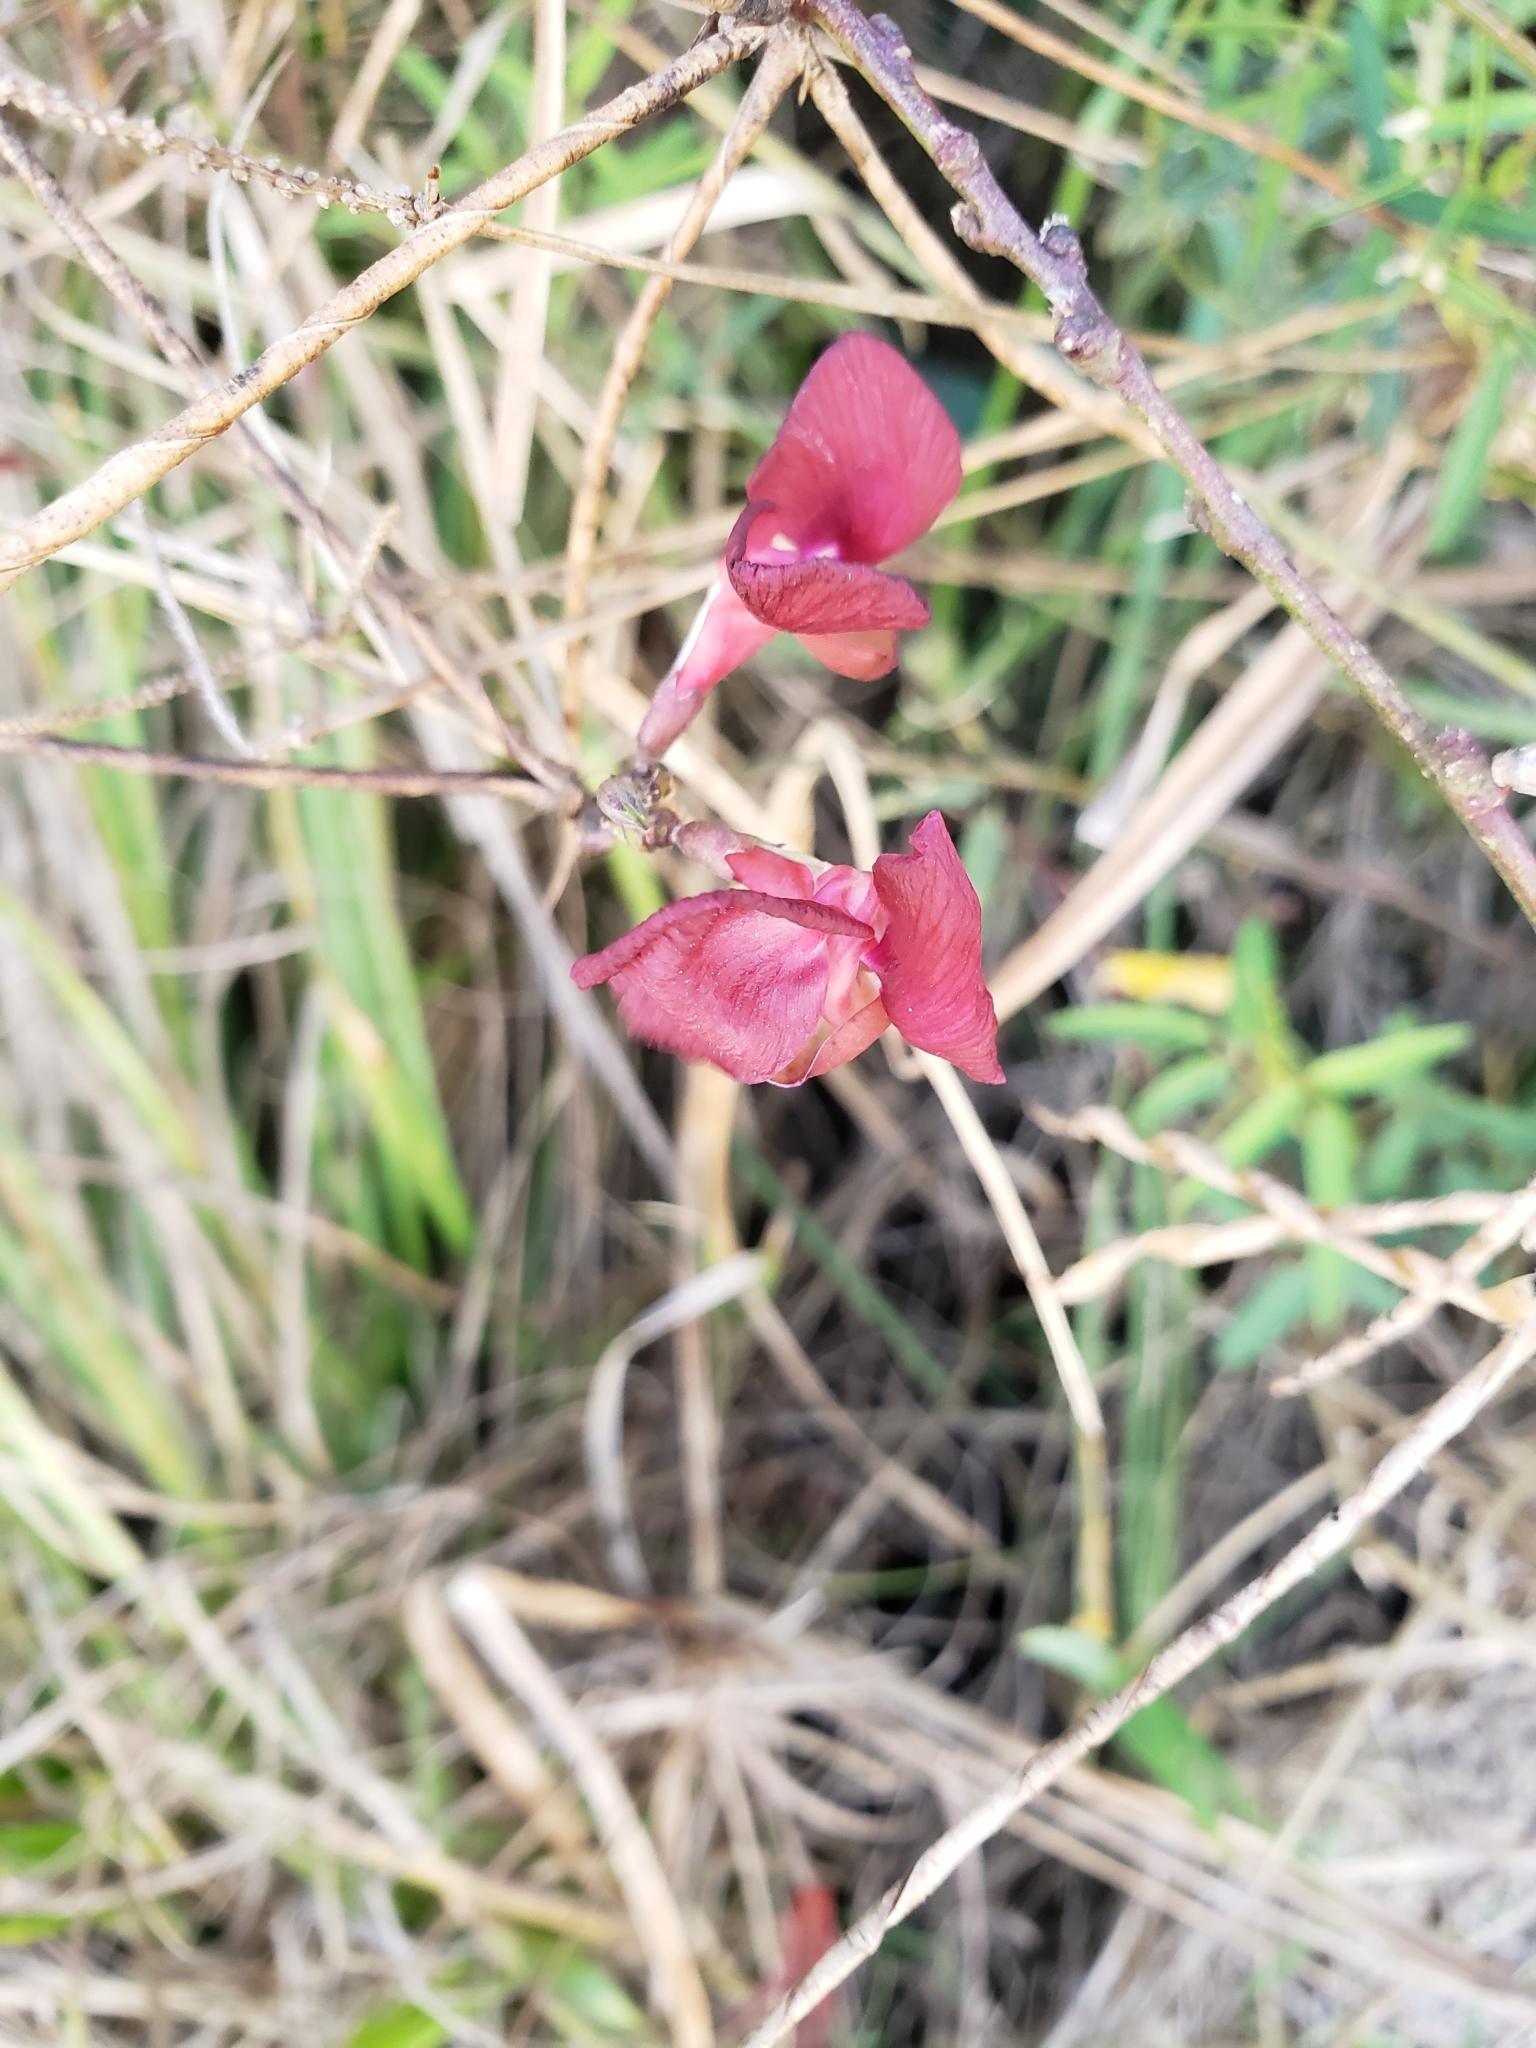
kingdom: Plantae
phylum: Tracheophyta
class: Magnoliopsida
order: Fabales
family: Fabaceae
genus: Macroptilium
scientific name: Macroptilium lathyroides
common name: Wild bushbean
